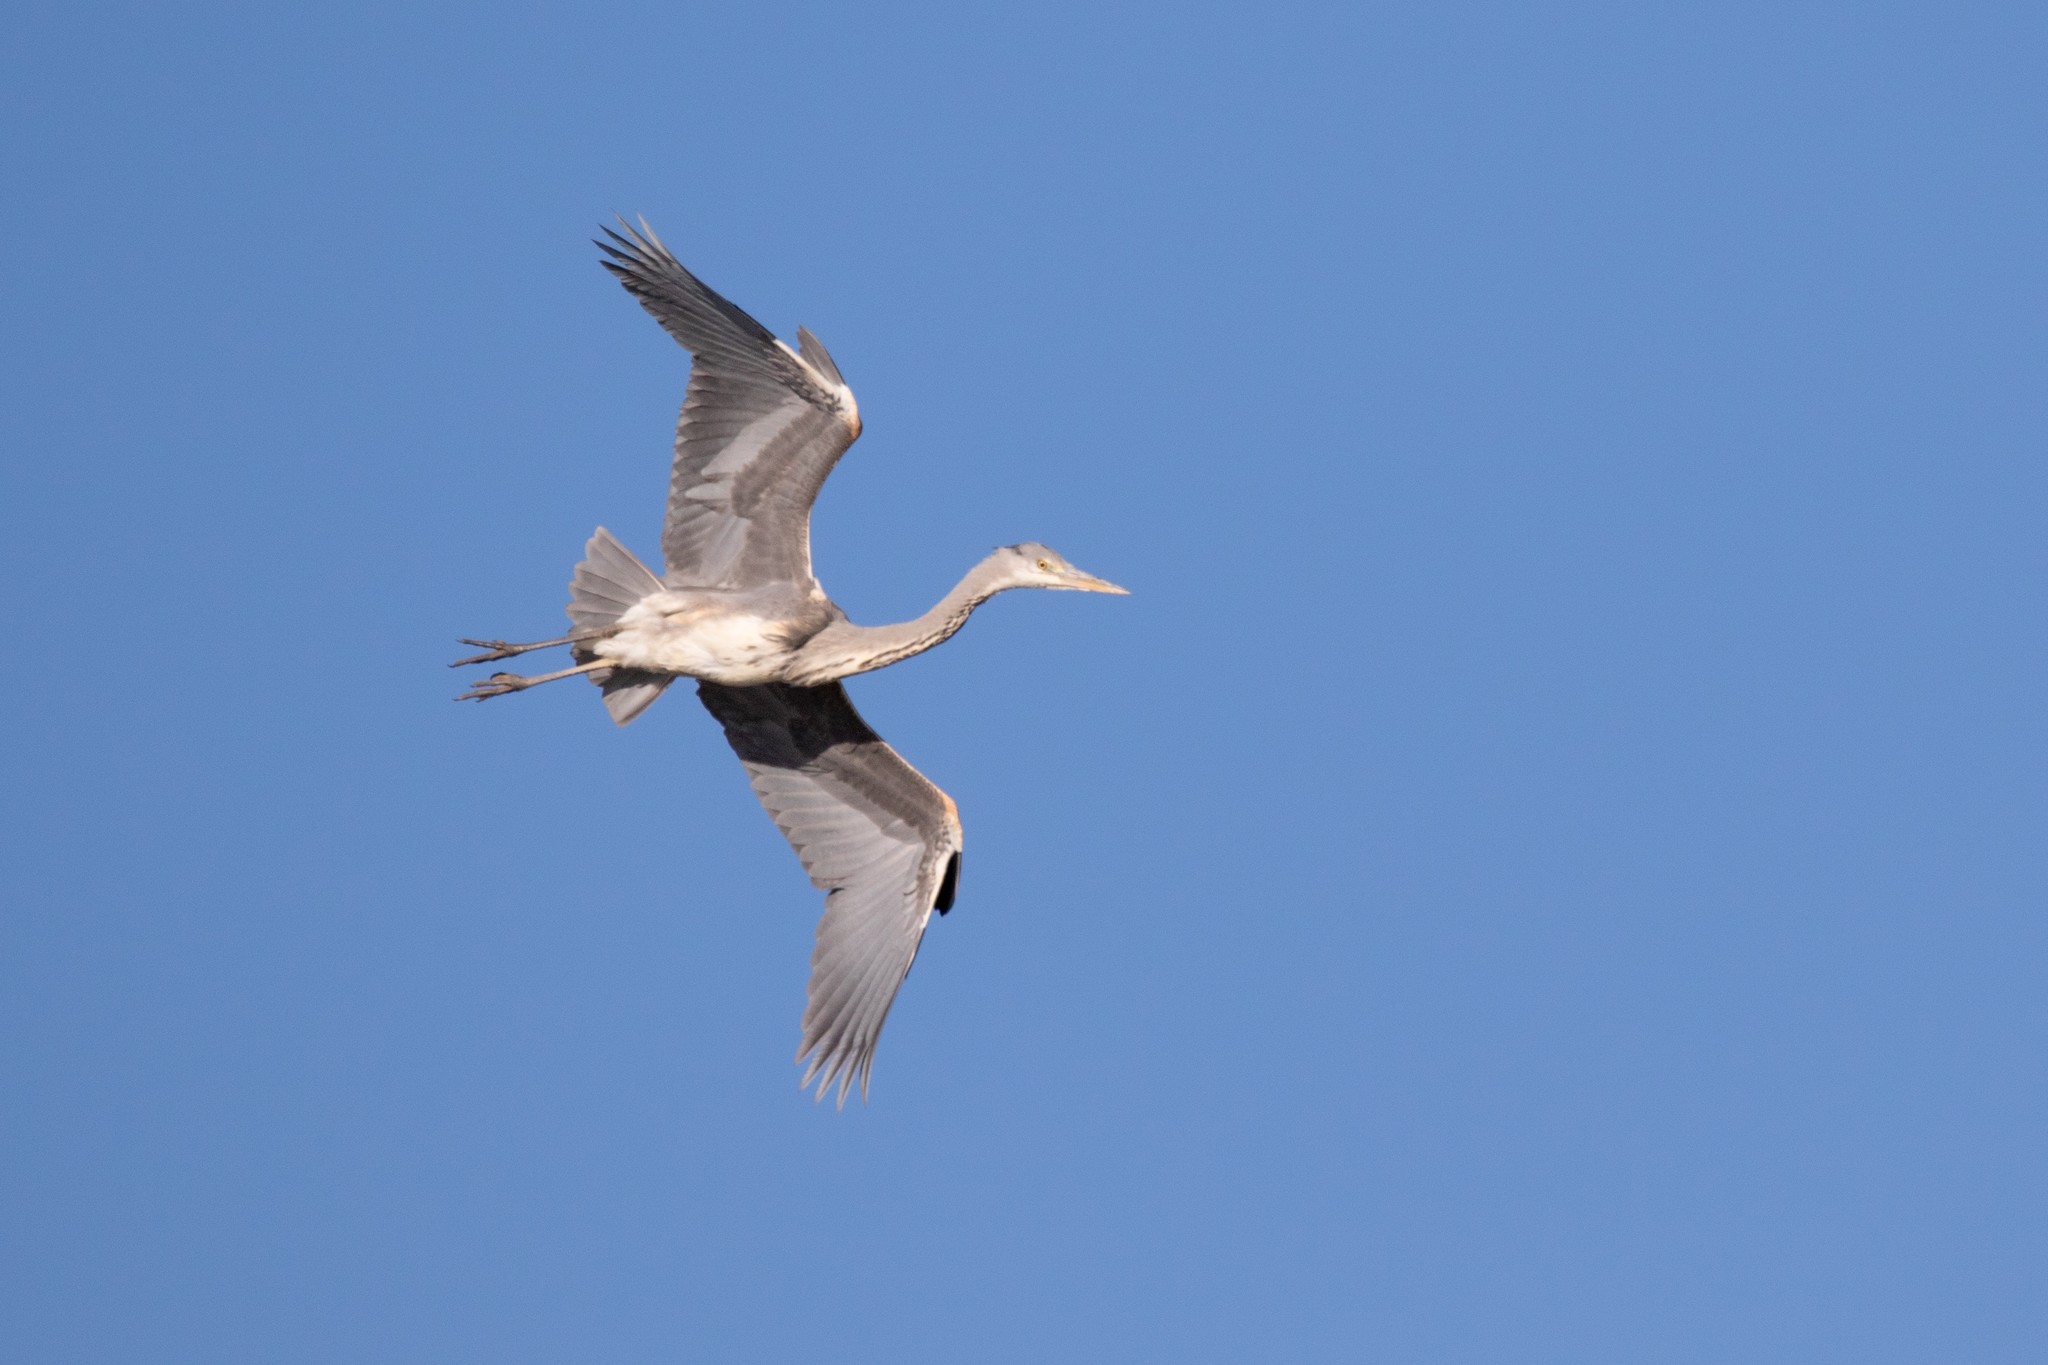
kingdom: Animalia
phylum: Chordata
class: Aves
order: Pelecaniformes
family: Ardeidae
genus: Ardea
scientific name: Ardea cinerea
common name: Grey heron
